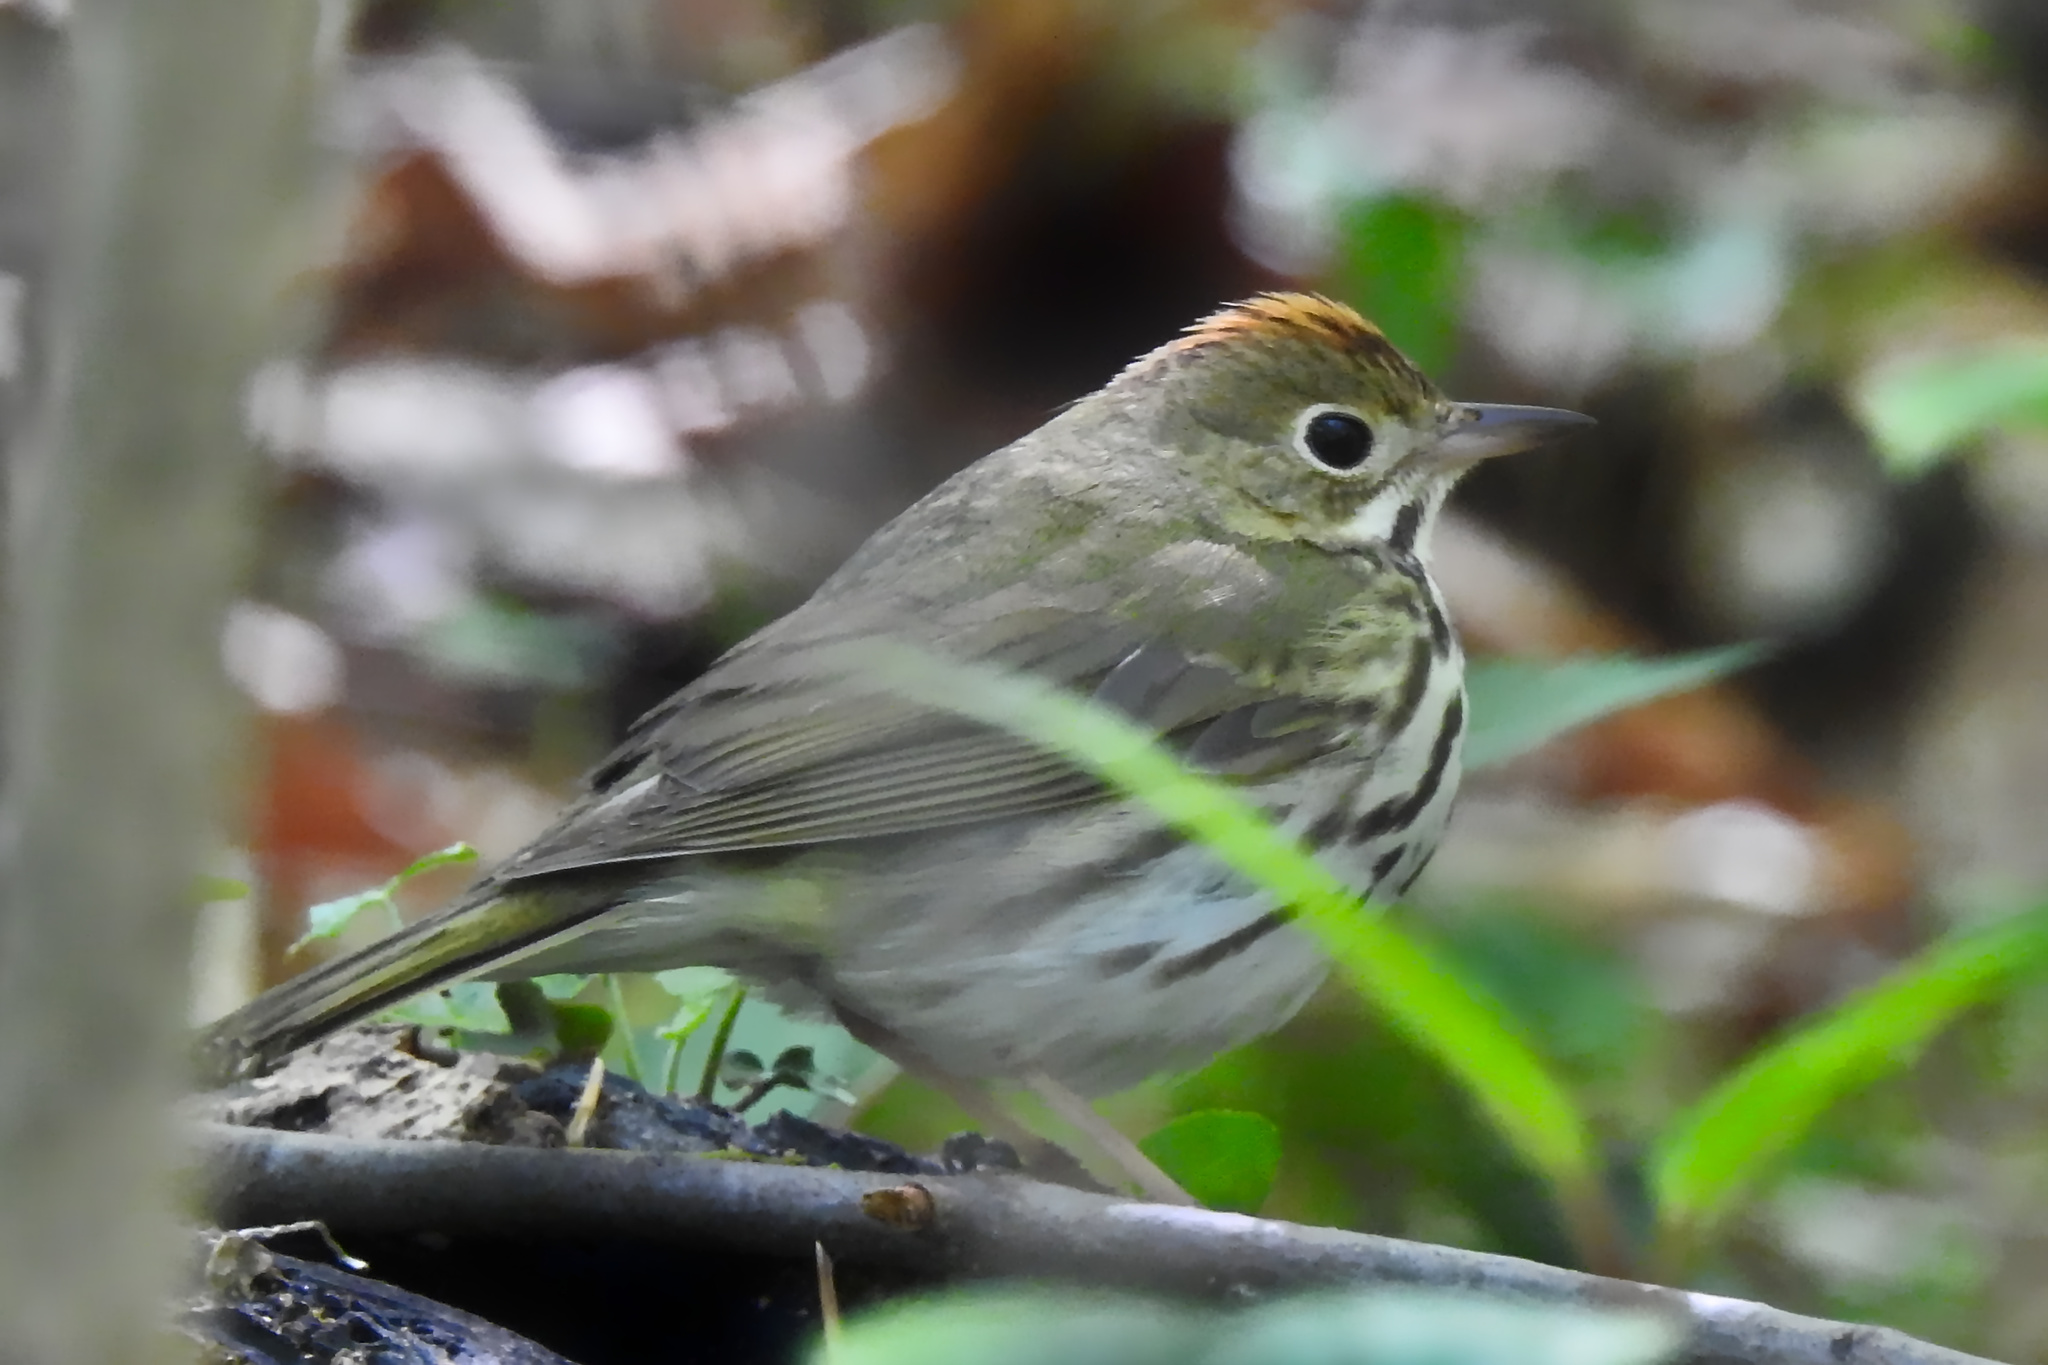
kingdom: Animalia
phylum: Chordata
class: Aves
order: Passeriformes
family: Parulidae
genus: Seiurus
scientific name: Seiurus aurocapilla
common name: Ovenbird
